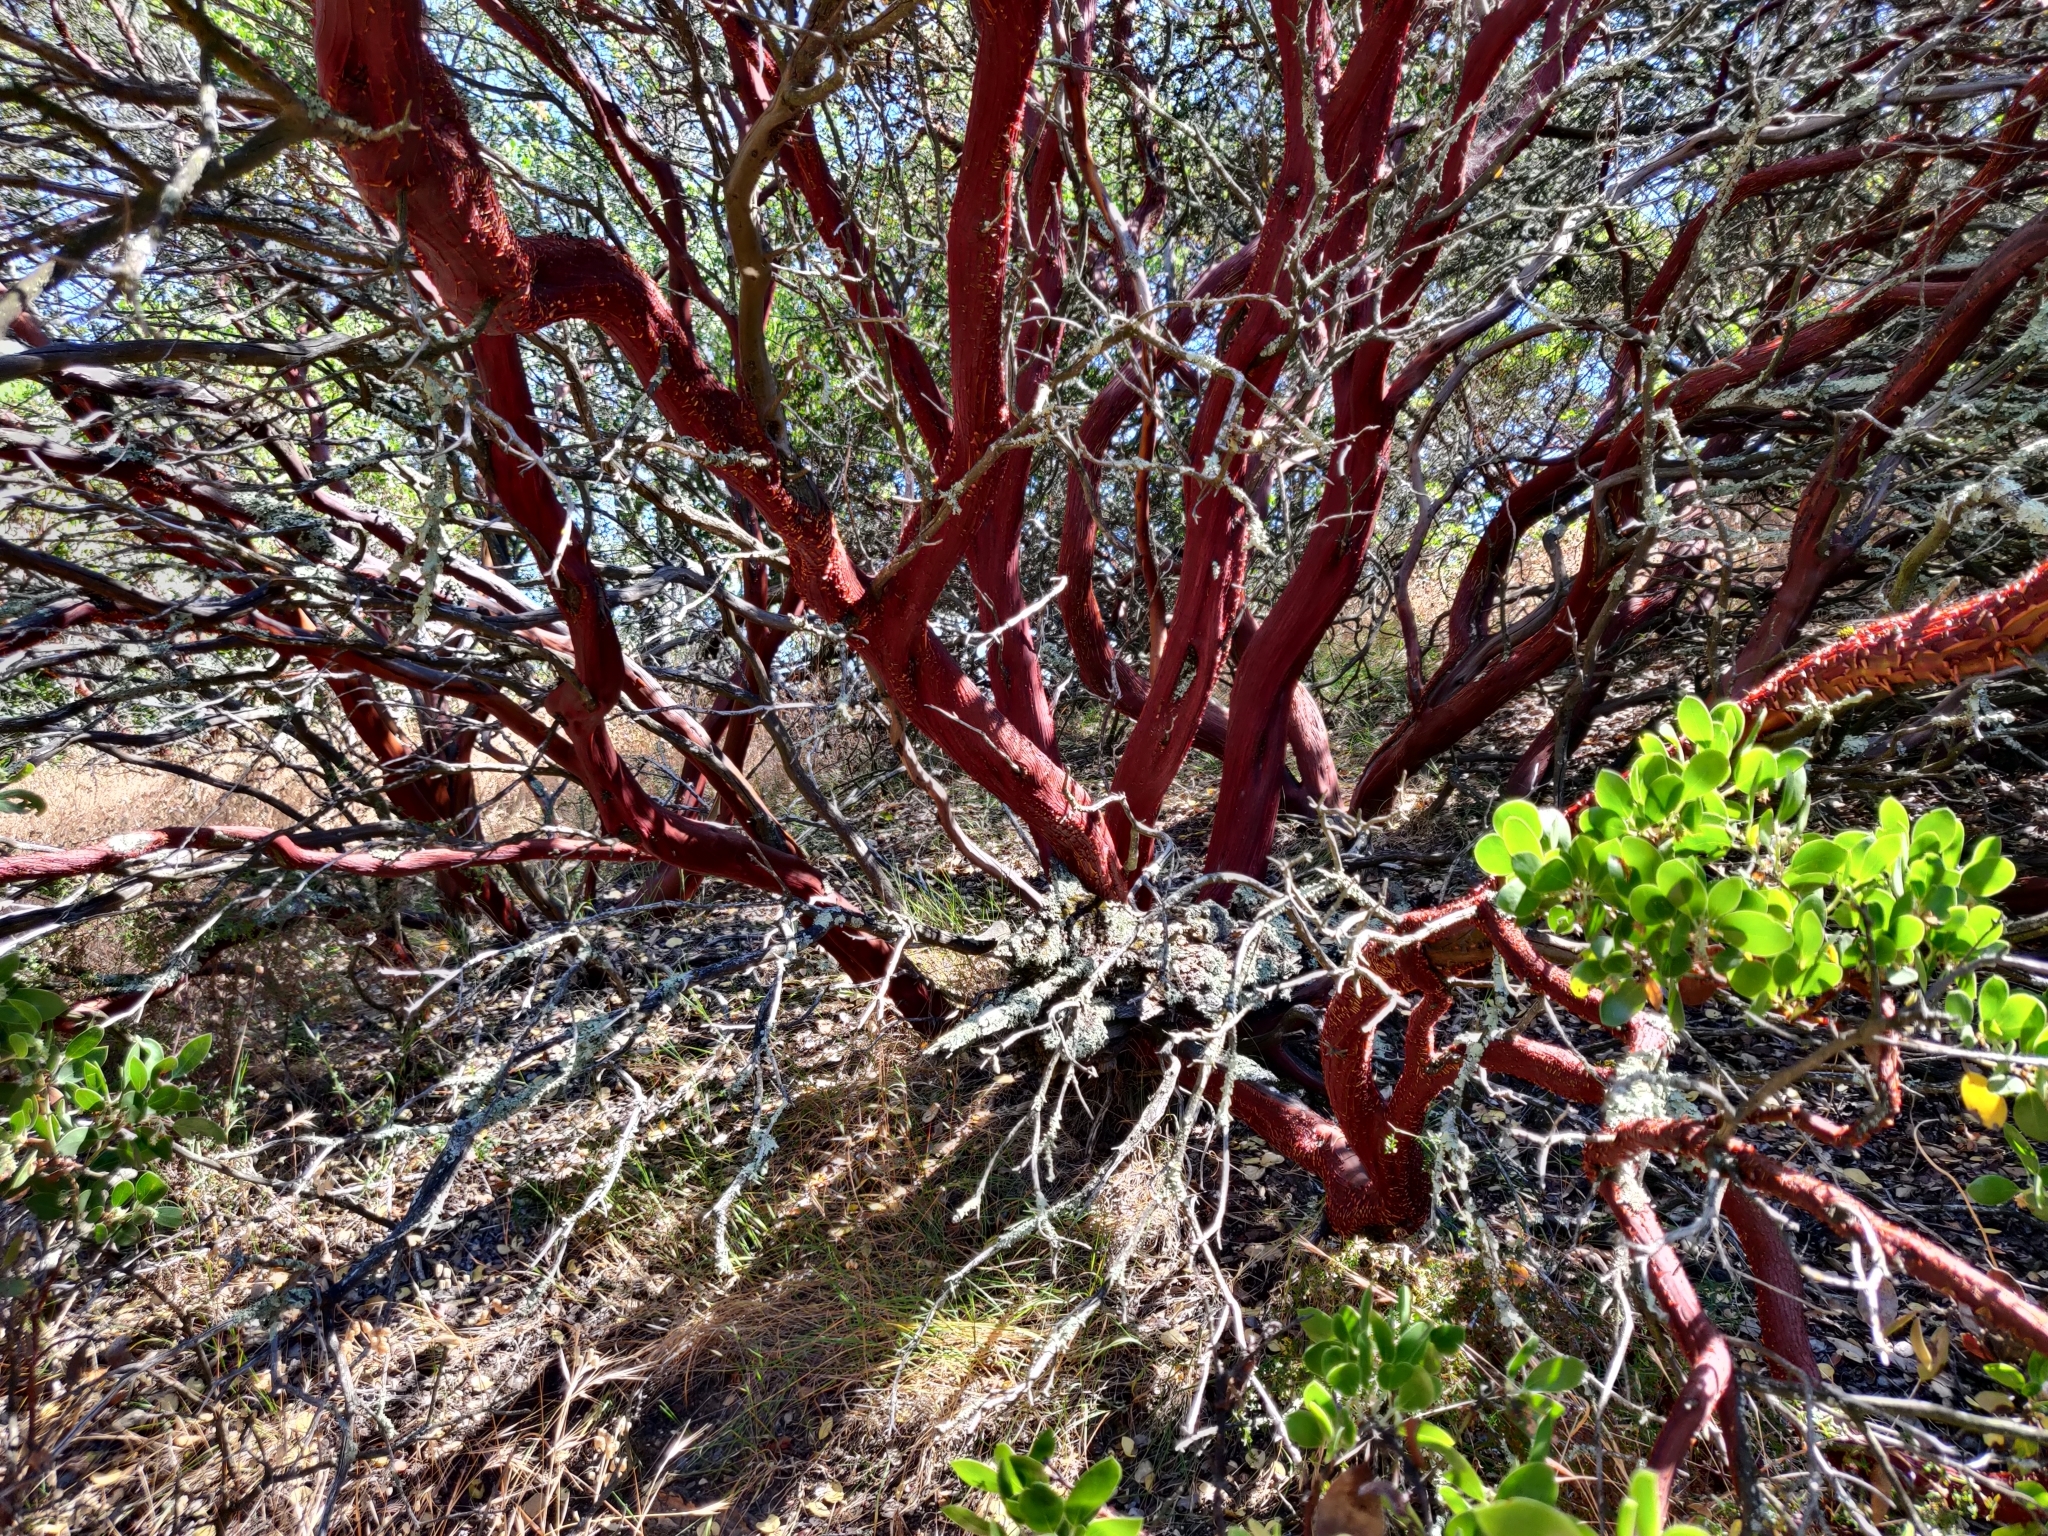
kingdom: Plantae
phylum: Tracheophyta
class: Magnoliopsida
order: Ericales
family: Ericaceae
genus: Arctostaphylos
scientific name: Arctostaphylos manzanita
